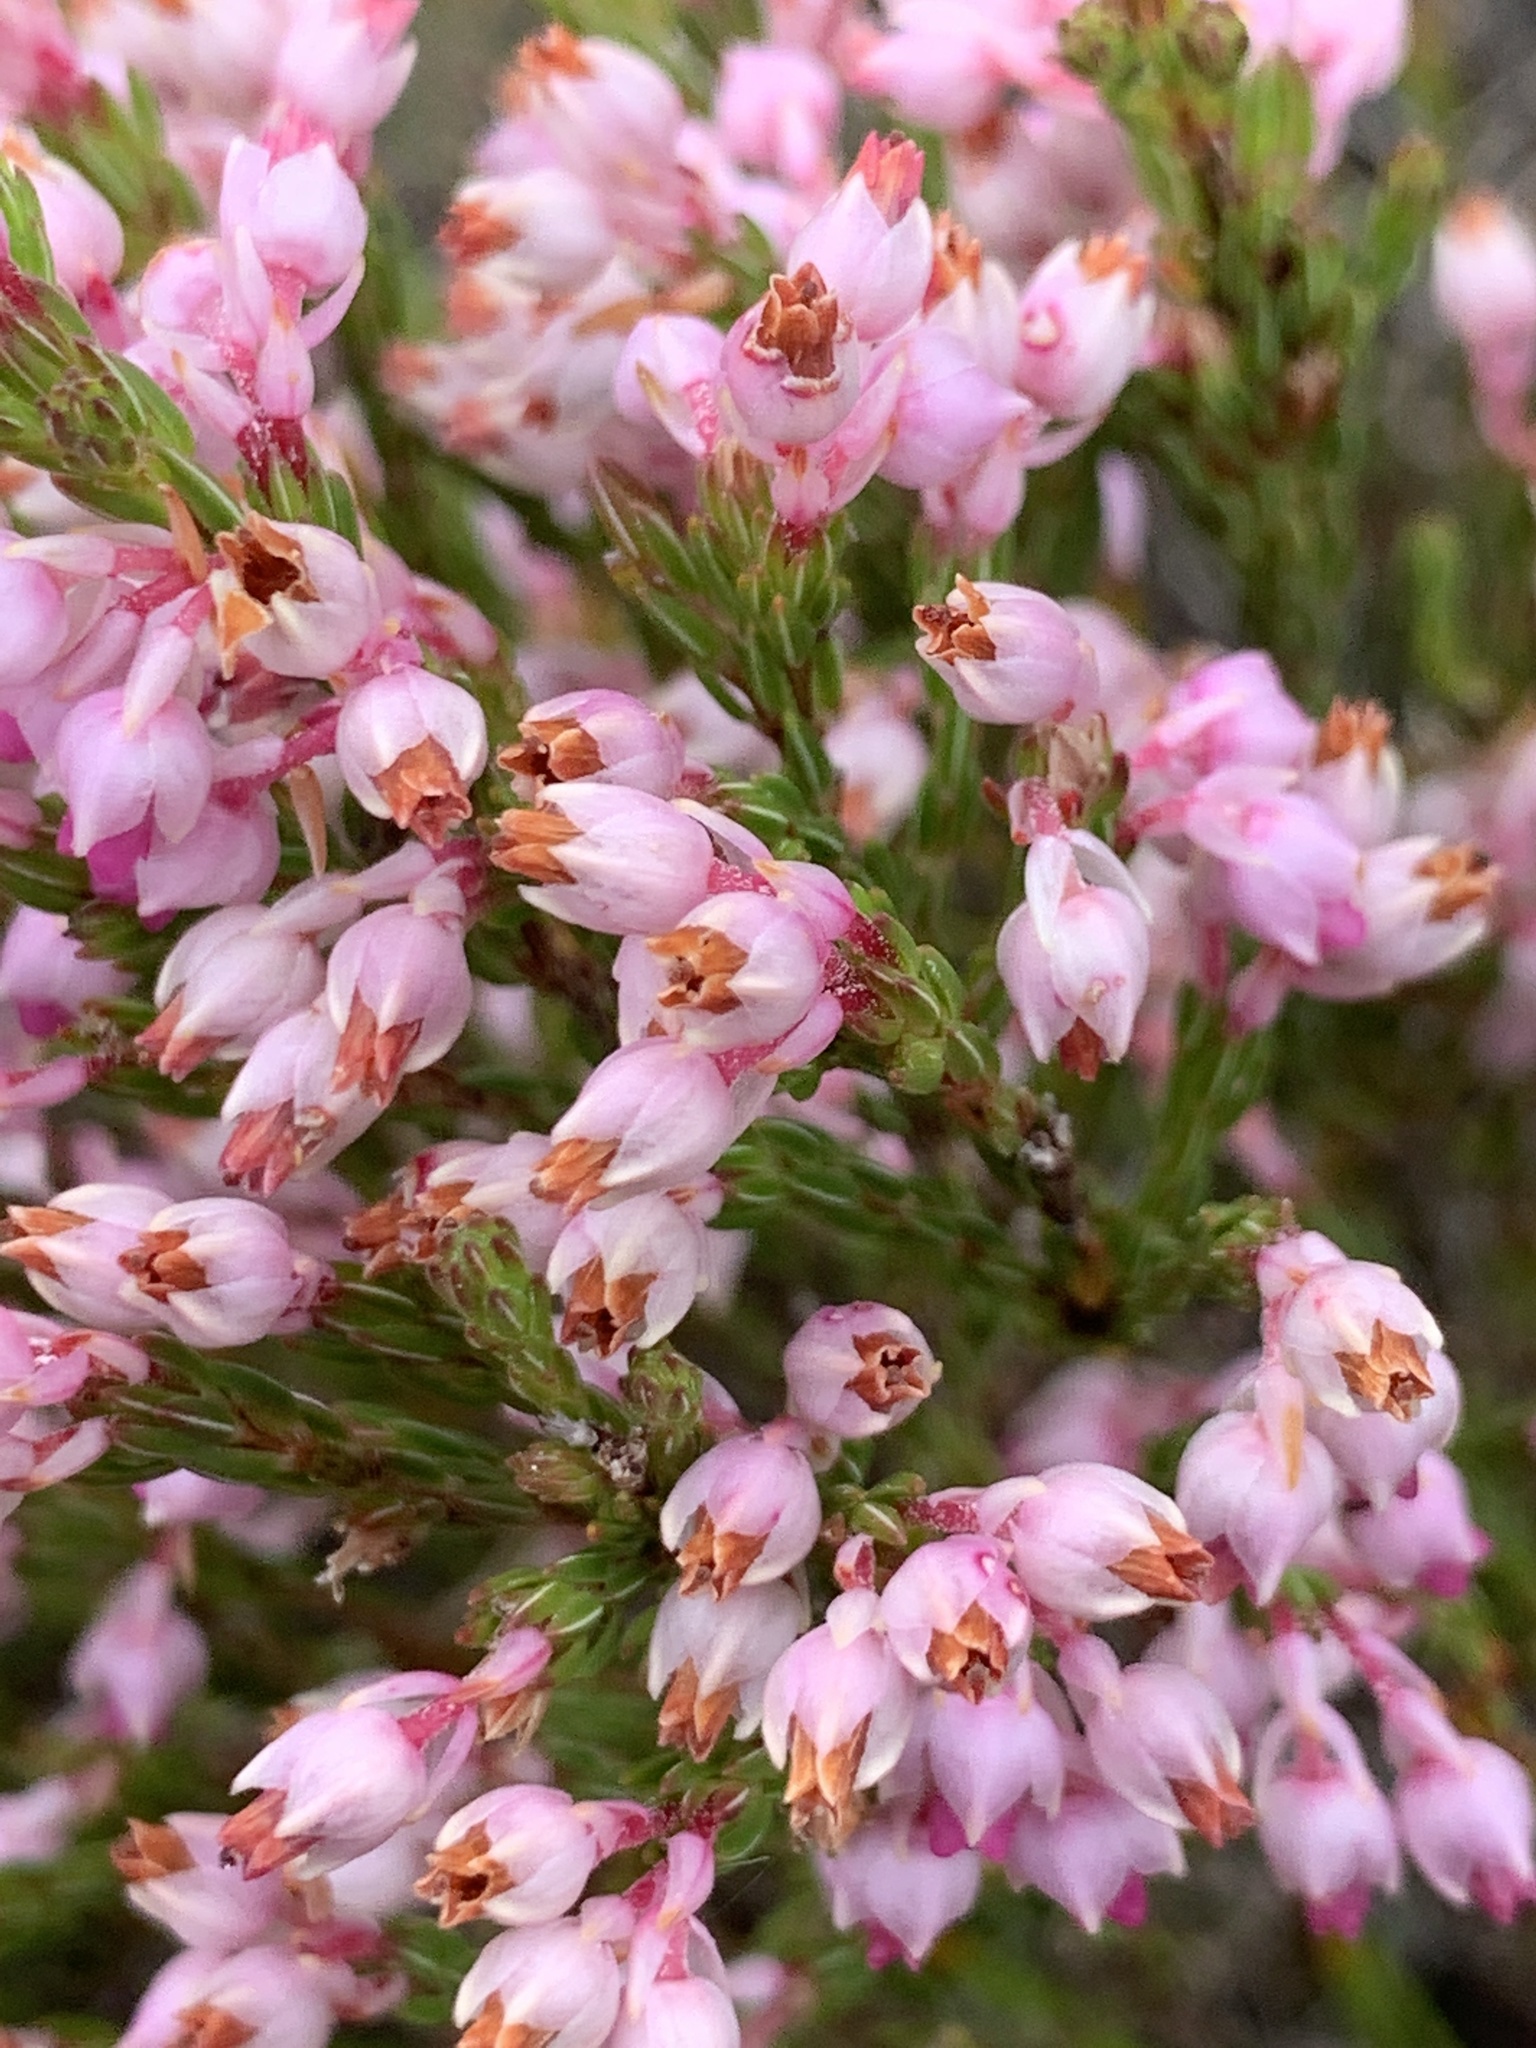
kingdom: Plantae
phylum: Tracheophyta
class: Magnoliopsida
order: Ericales
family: Ericaceae
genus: Erica
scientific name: Erica palliiflora
